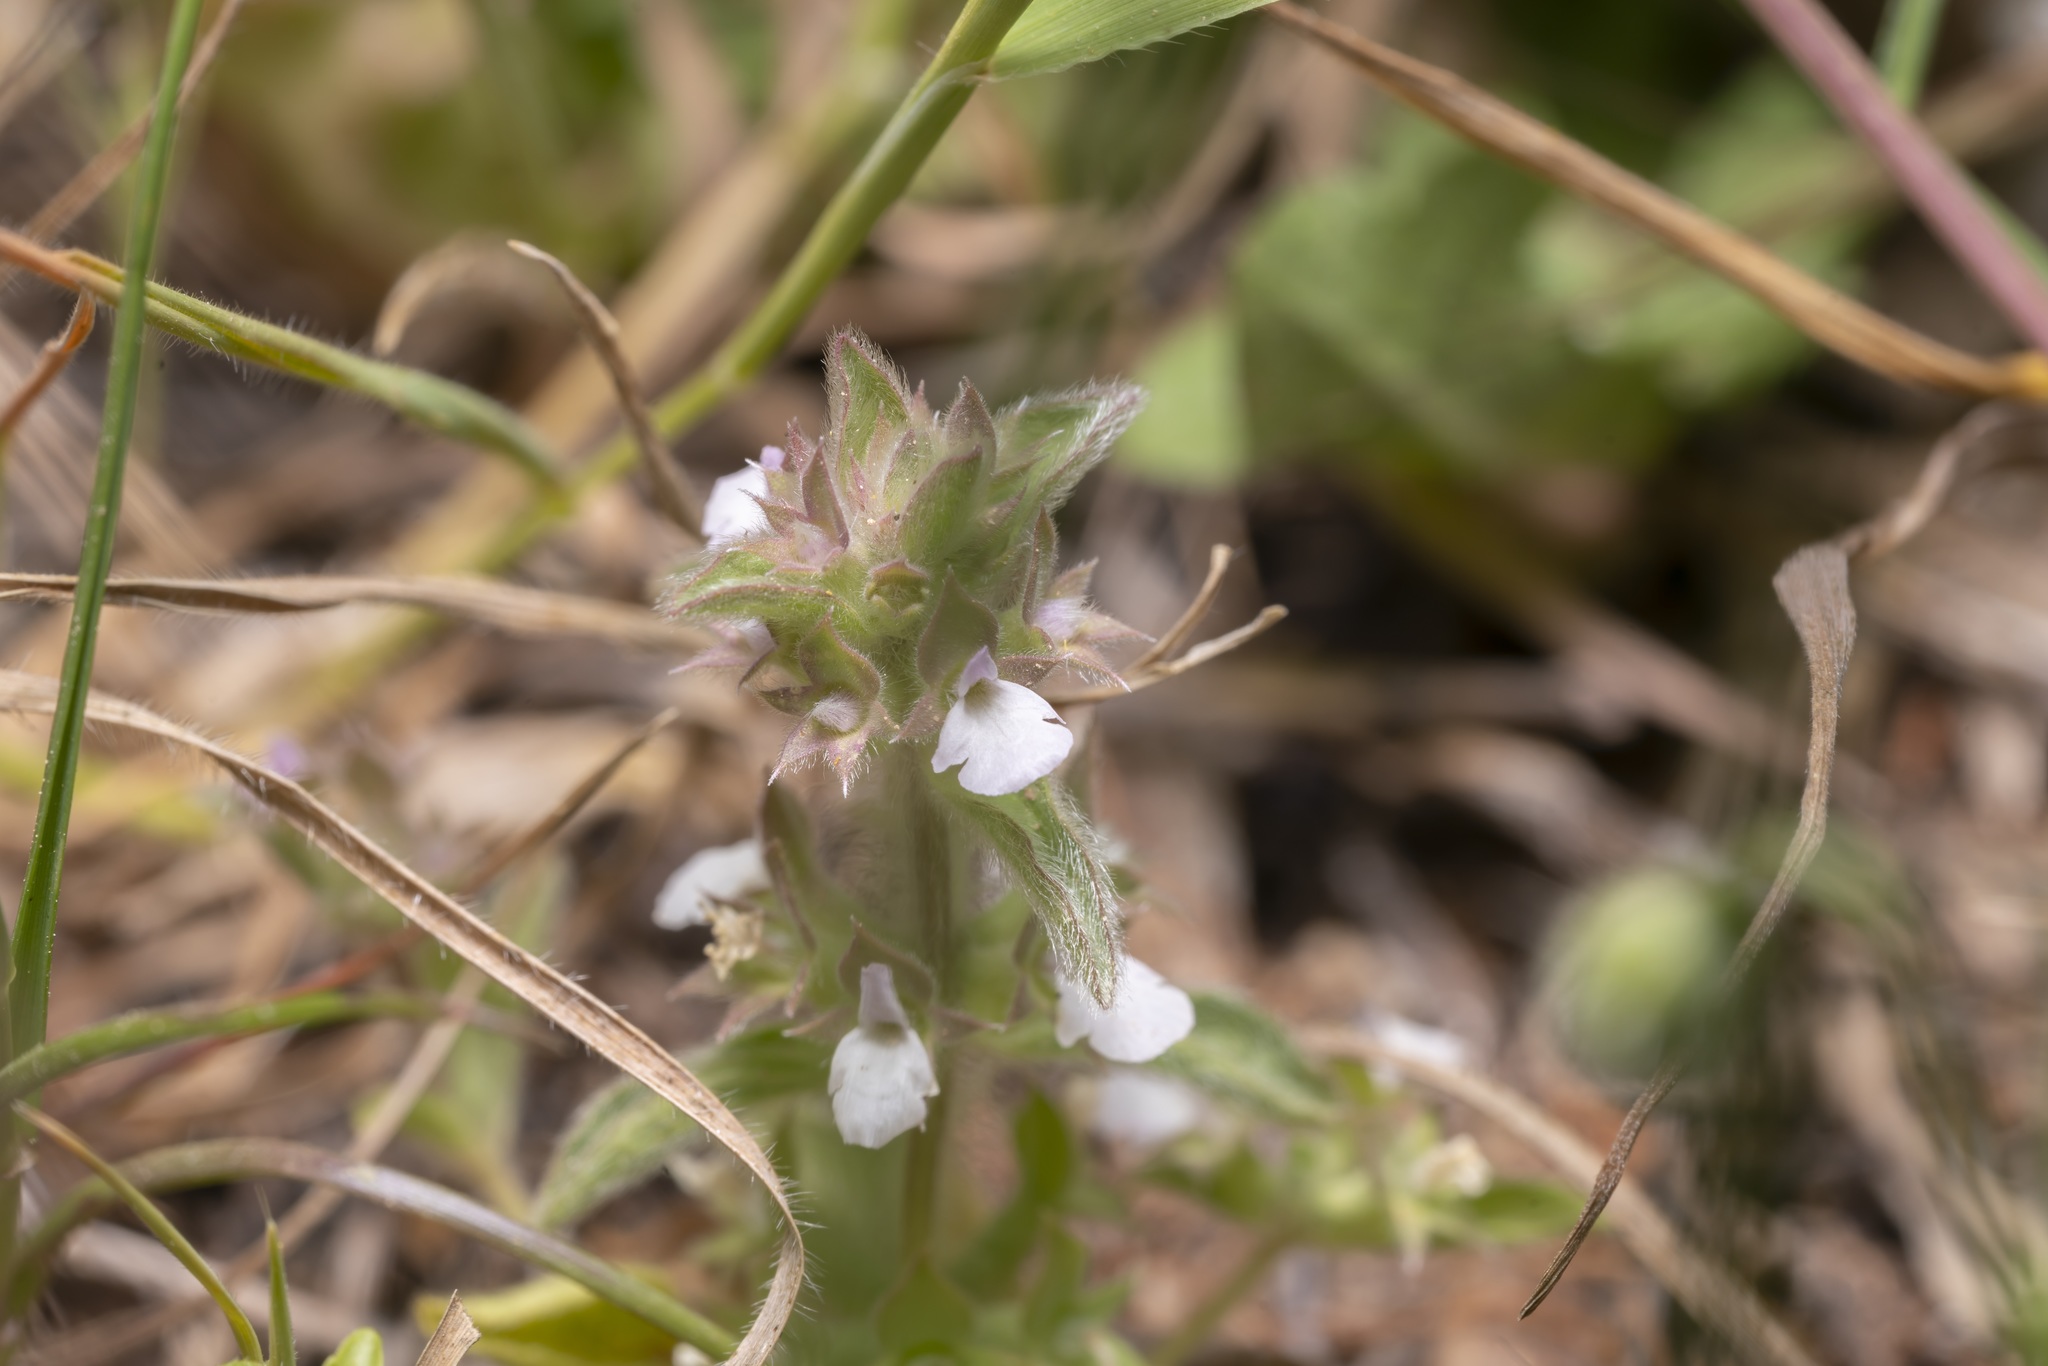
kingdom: Plantae
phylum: Tracheophyta
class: Magnoliopsida
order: Lamiales
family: Lamiaceae
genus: Sideritis
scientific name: Sideritis romana
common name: Simplebeak ironwort
